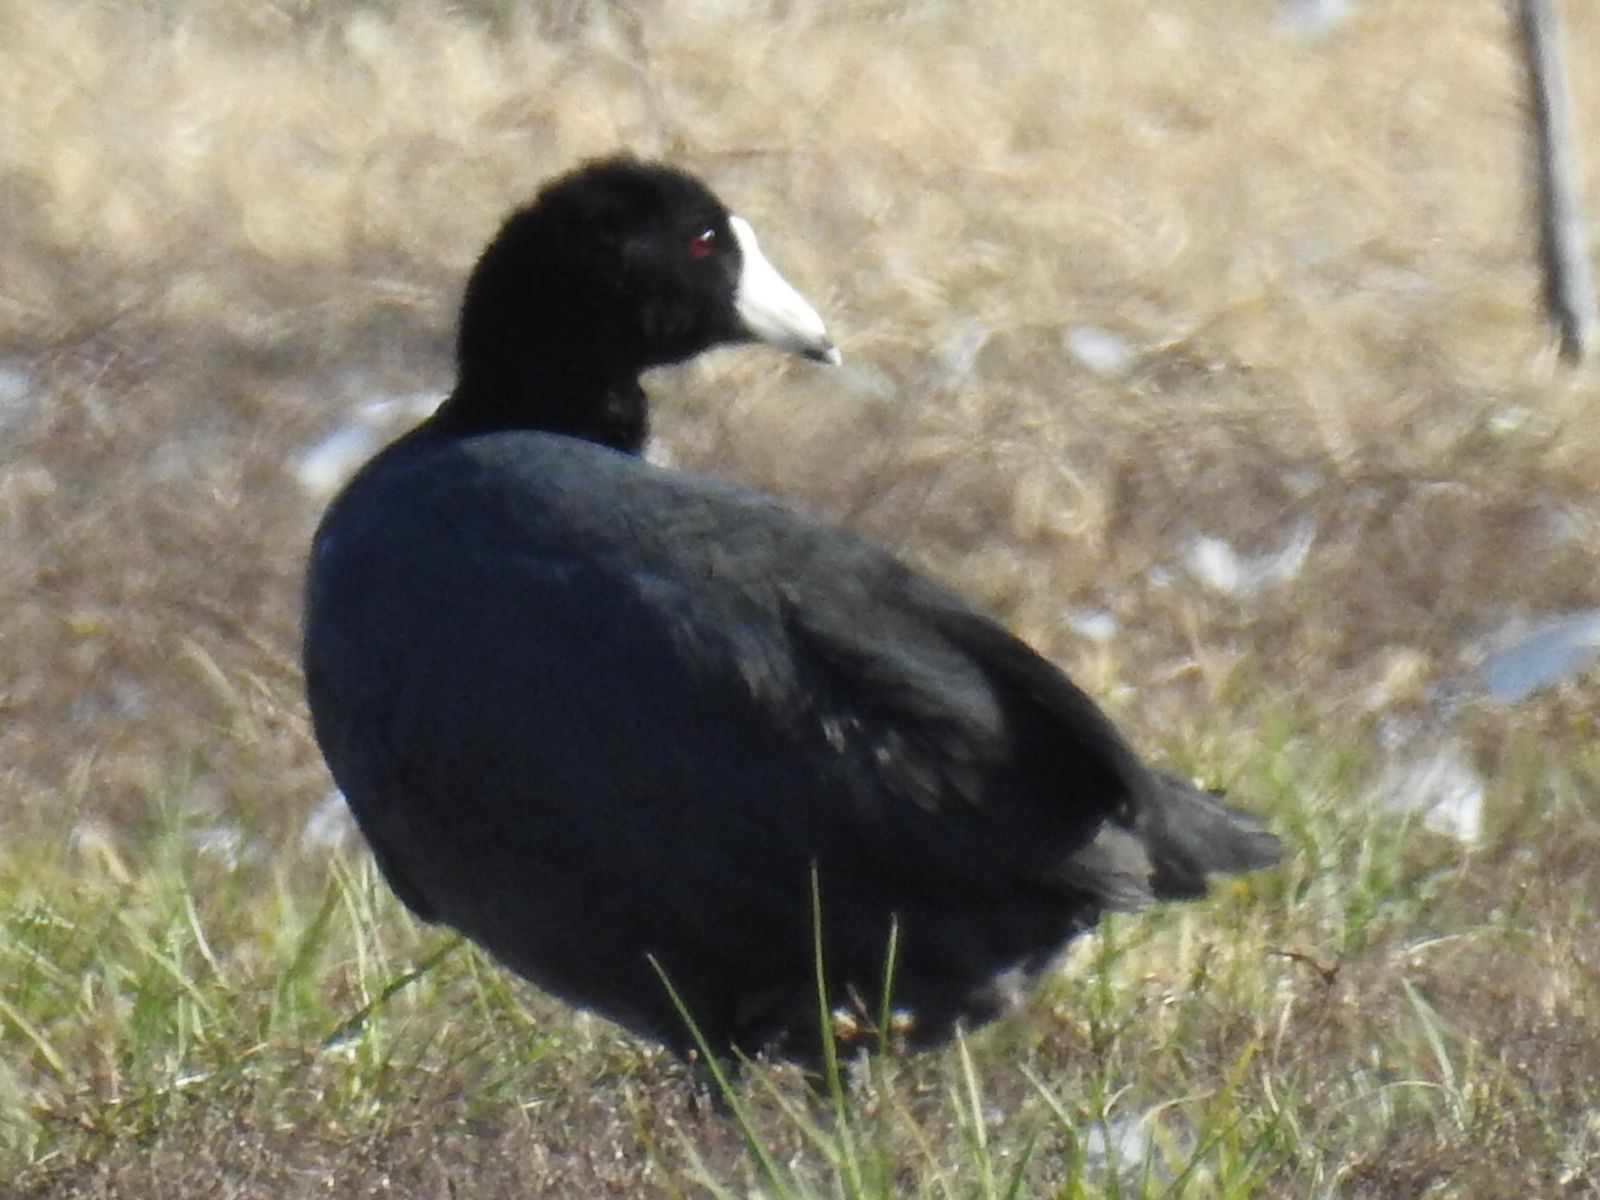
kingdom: Animalia
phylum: Chordata
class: Aves
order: Gruiformes
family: Rallidae
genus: Fulica
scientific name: Fulica americana
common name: American coot
